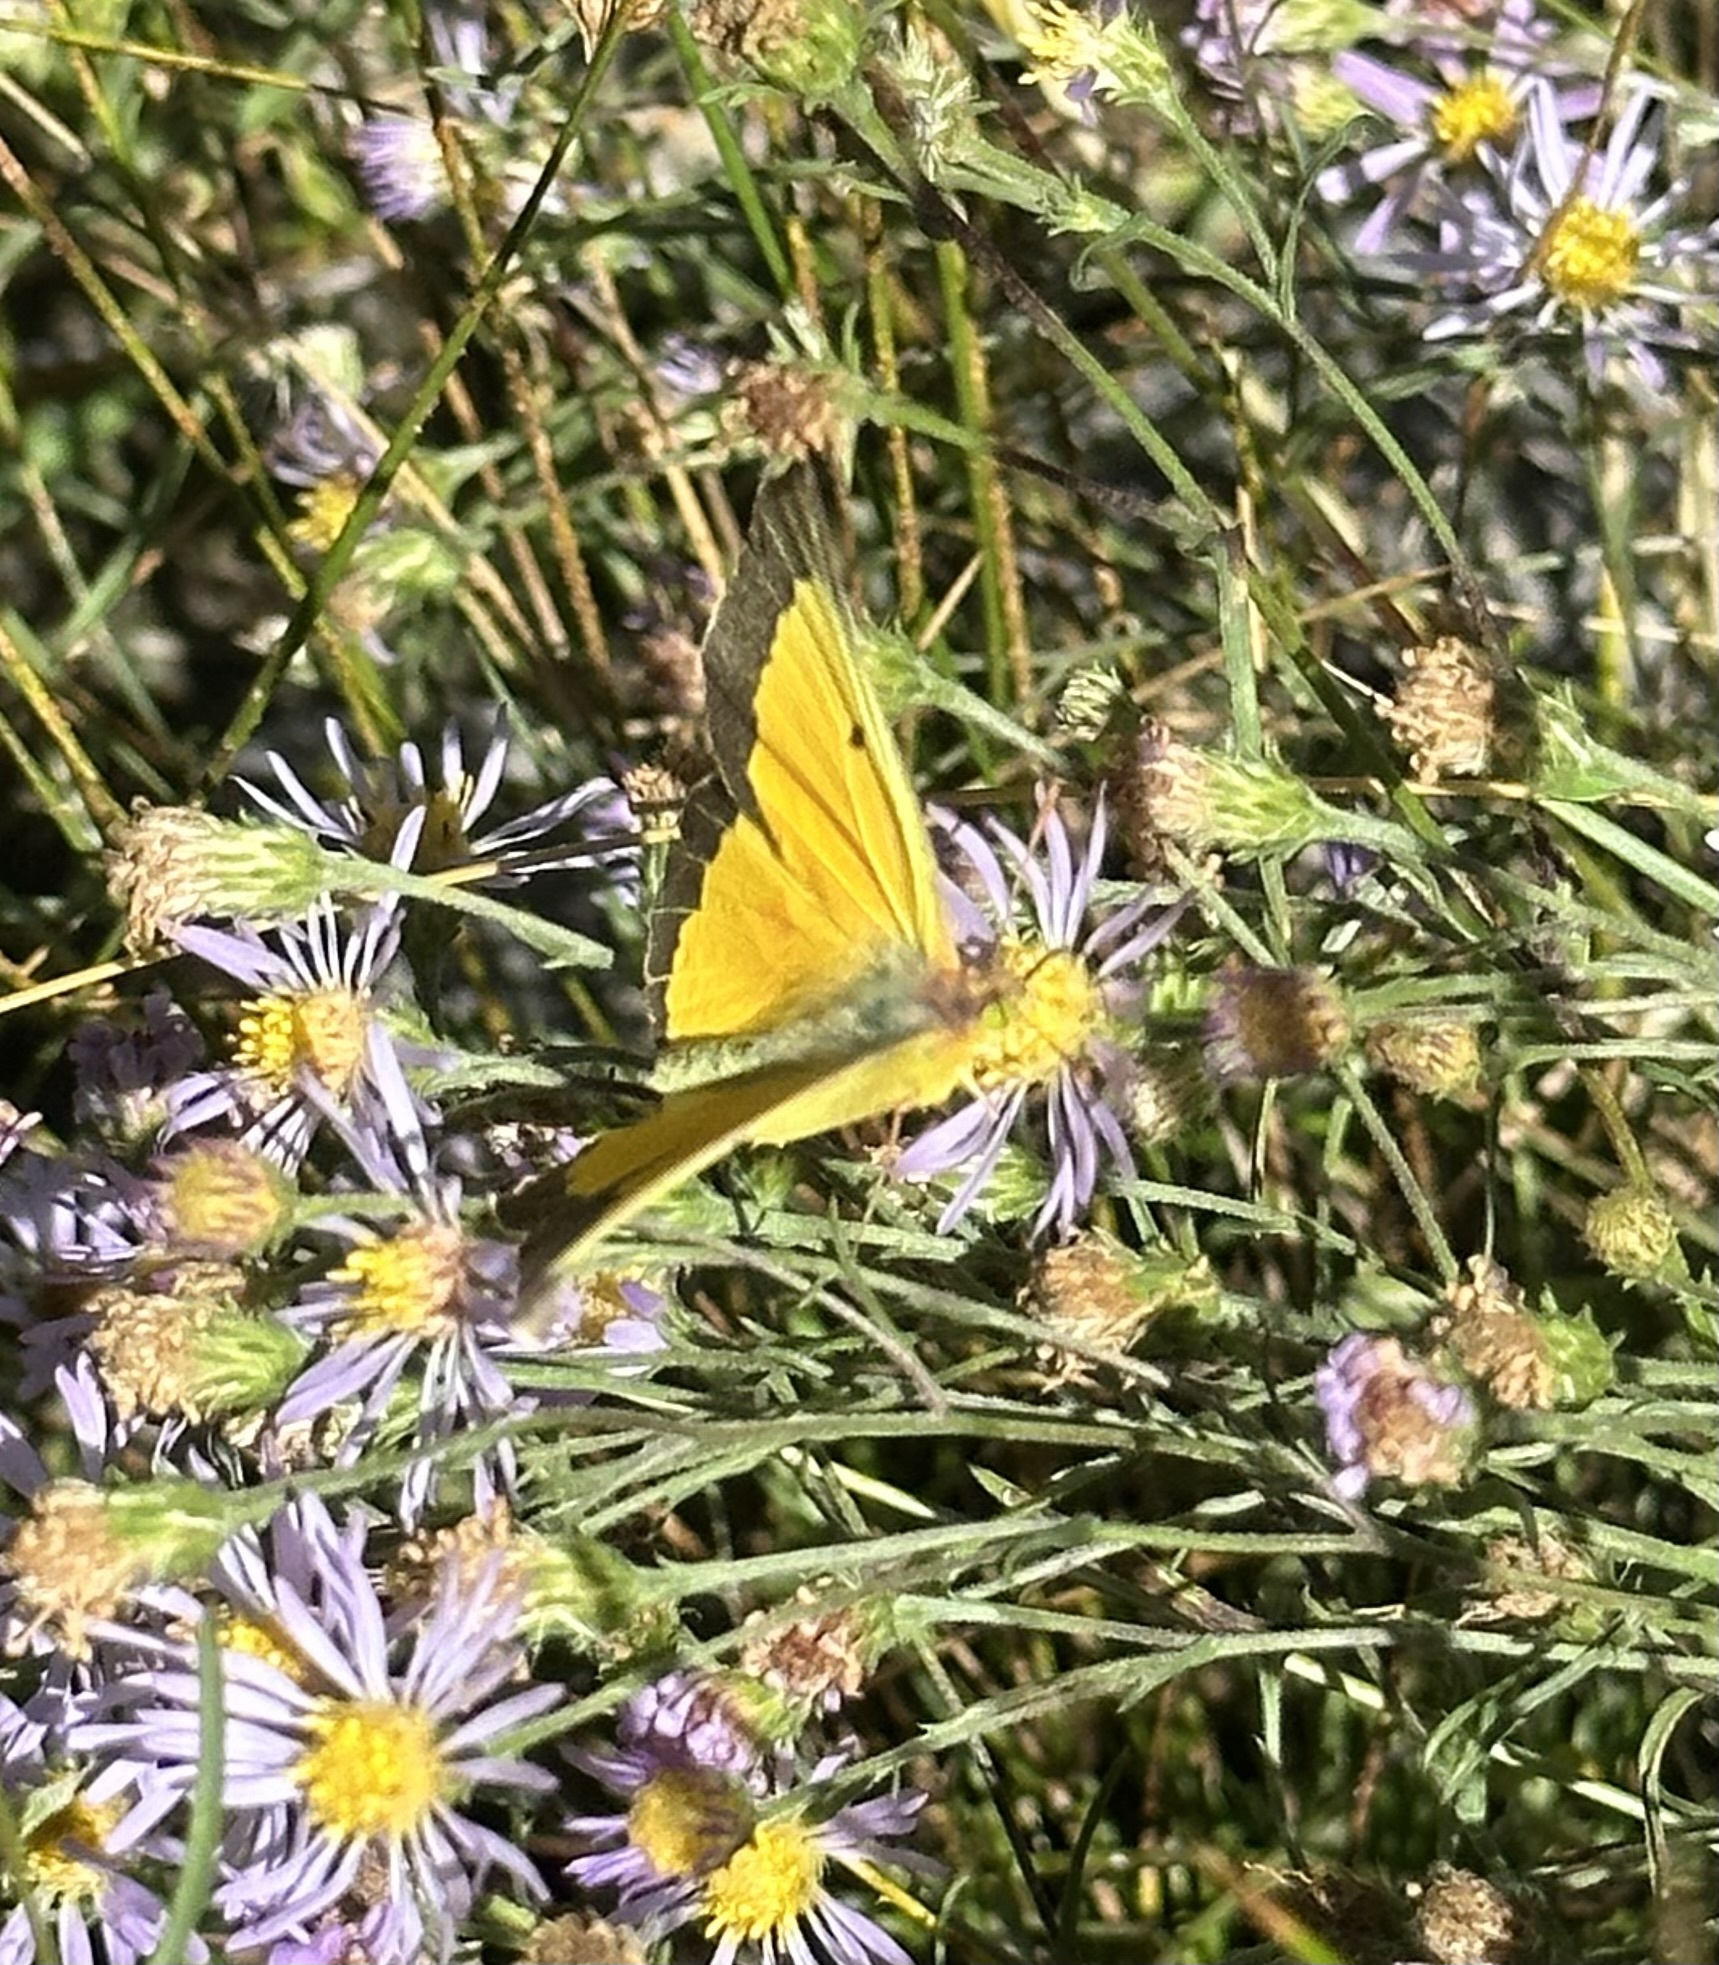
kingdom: Animalia
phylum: Arthropoda
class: Insecta
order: Lepidoptera
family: Pieridae
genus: Colias
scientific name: Colias eurytheme
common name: Alfalfa butterfly
